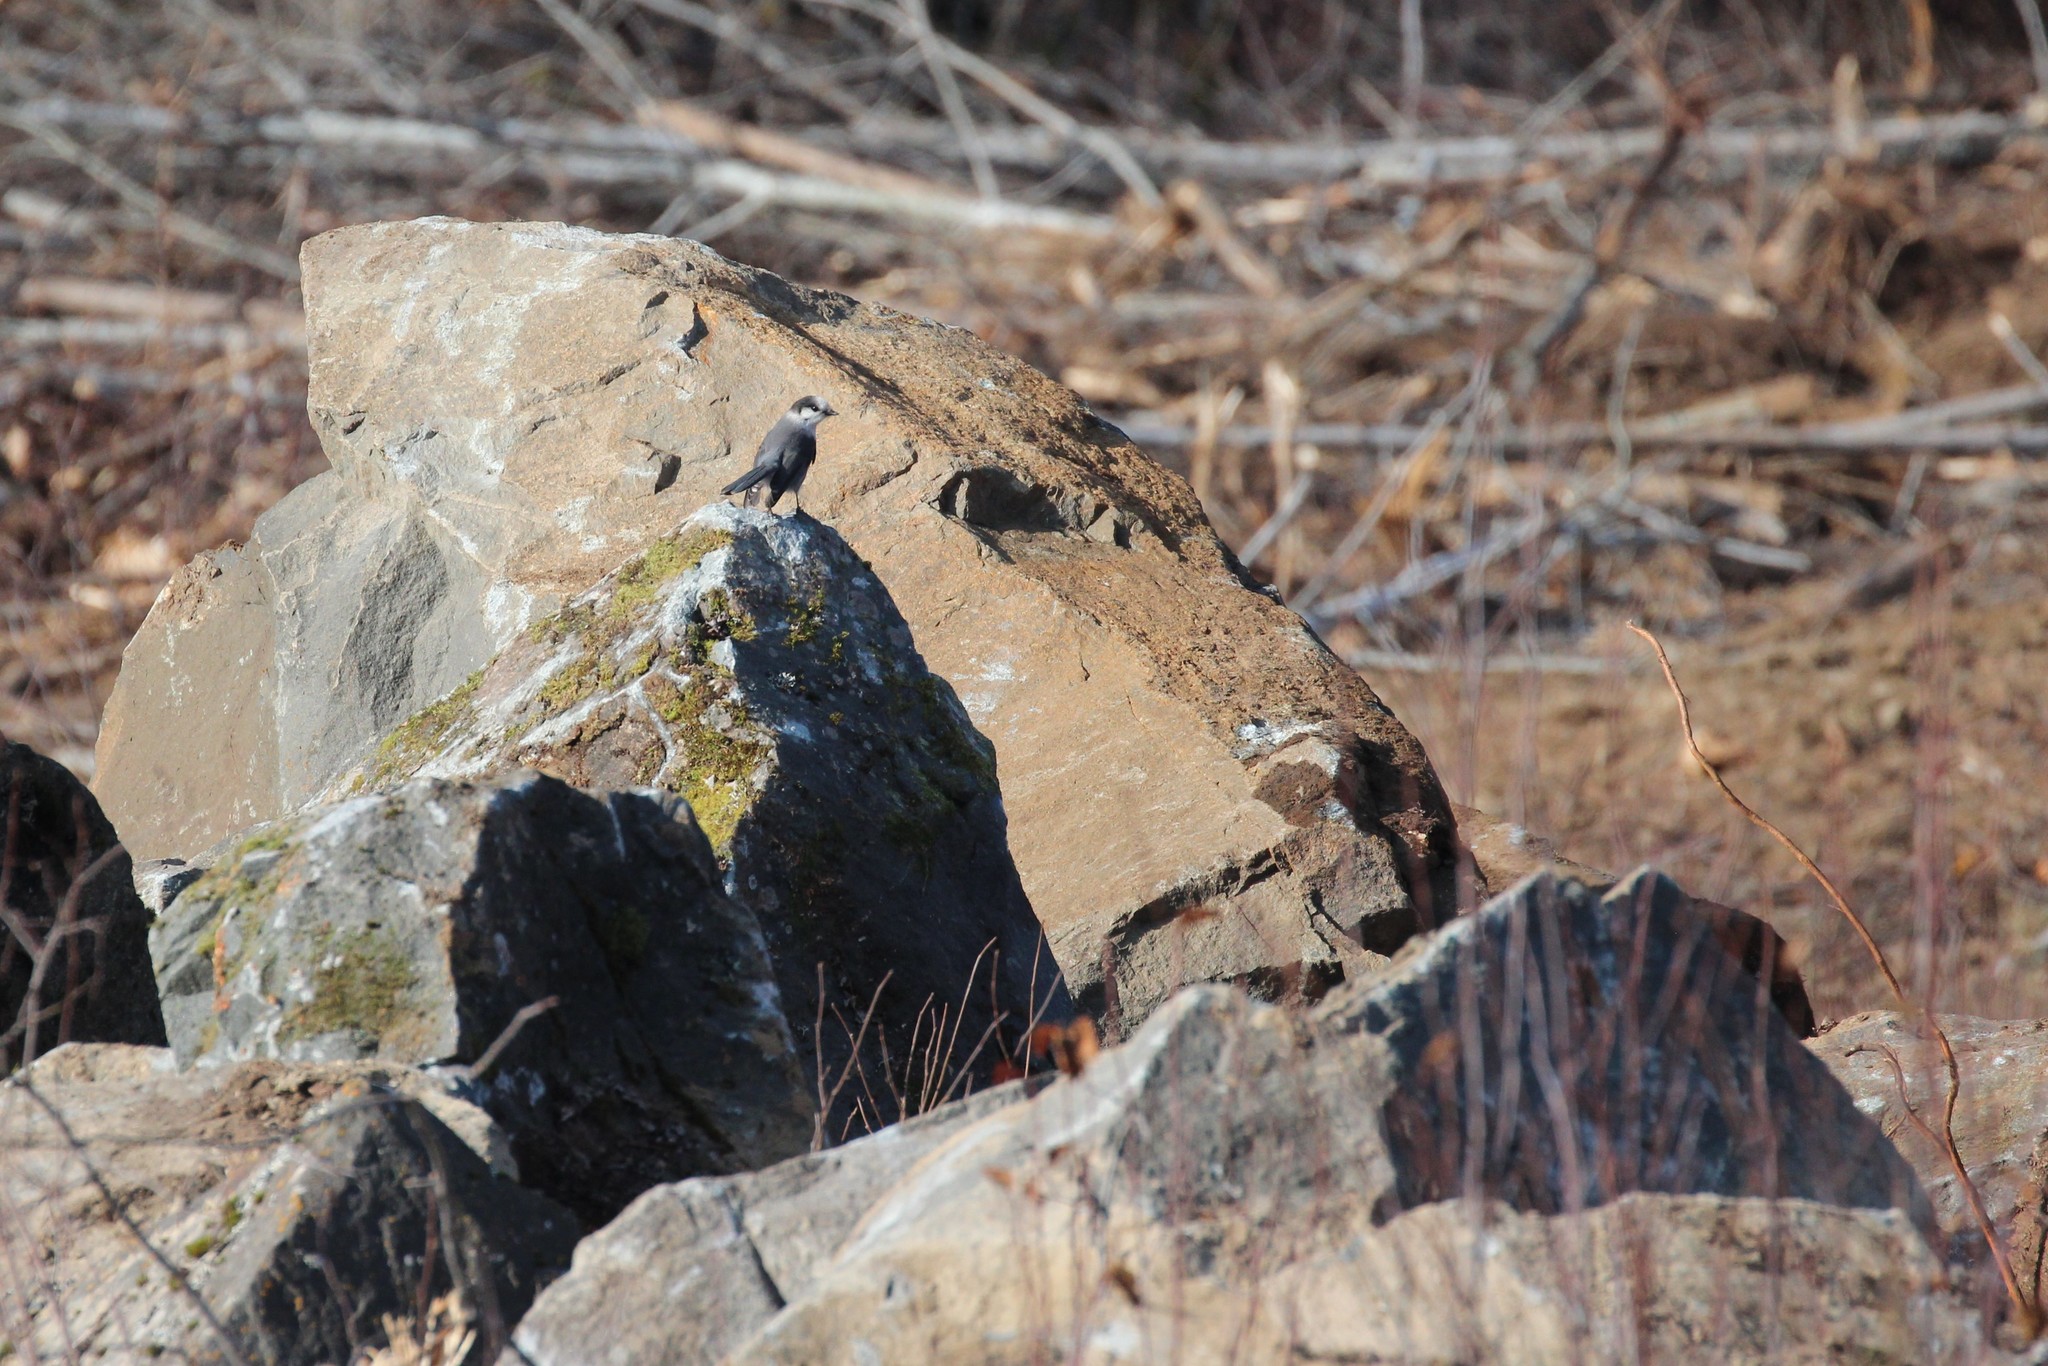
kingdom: Animalia
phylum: Chordata
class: Aves
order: Passeriformes
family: Corvidae
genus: Perisoreus
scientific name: Perisoreus canadensis
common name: Gray jay
